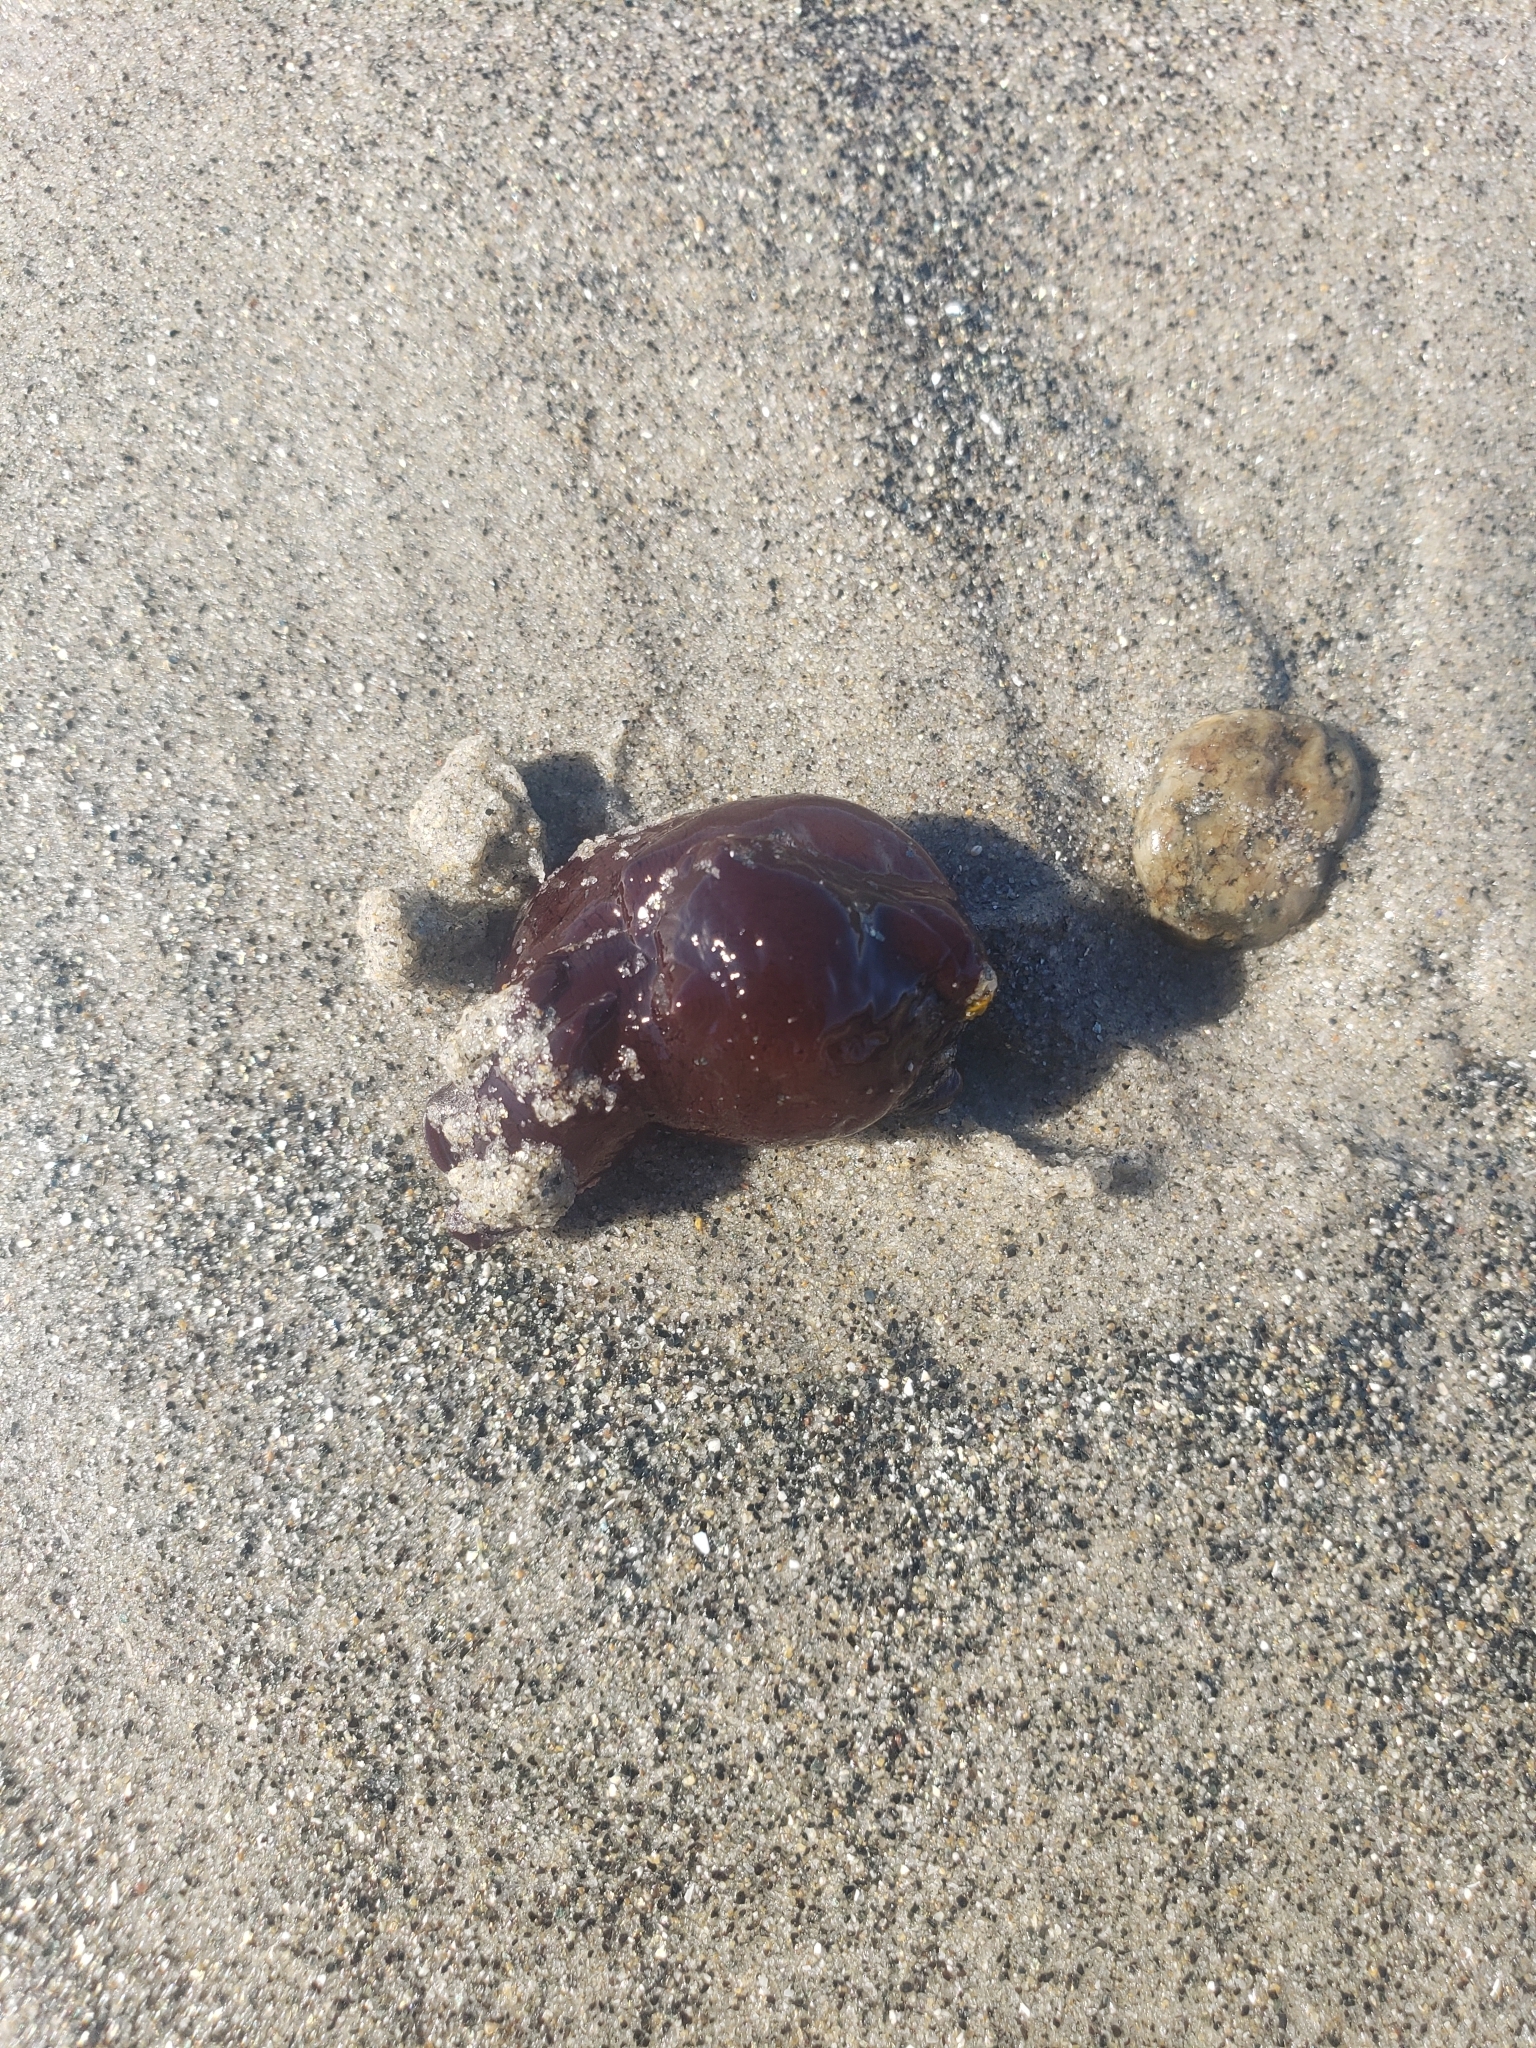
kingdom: Animalia
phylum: Mollusca
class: Gastropoda
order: Aplysiida
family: Aplysiidae
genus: Aplysia
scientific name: Aplysia californica
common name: California seahare
